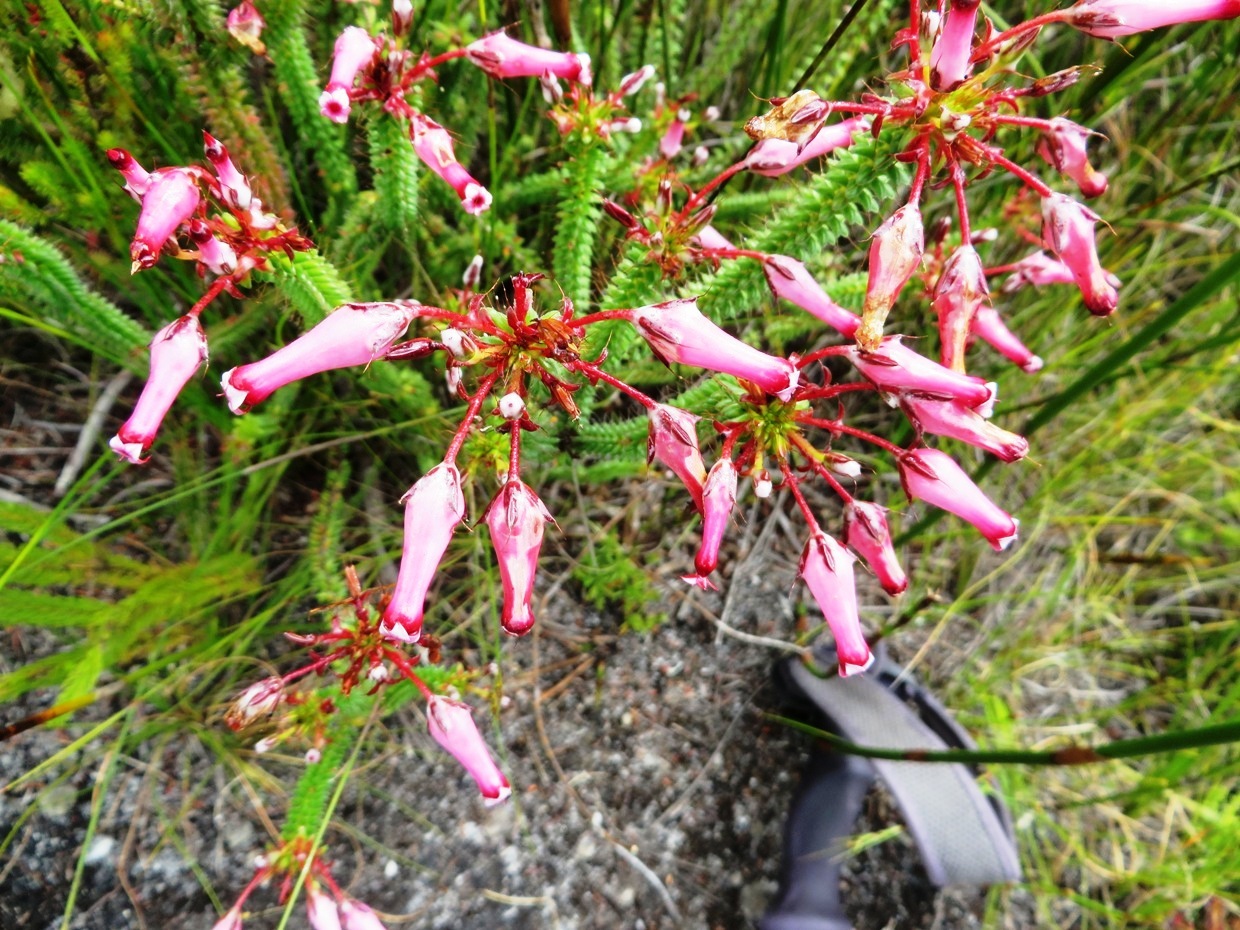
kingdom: Plantae
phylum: Tracheophyta
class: Magnoliopsida
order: Ericales
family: Ericaceae
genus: Erica
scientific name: Erica retorta
